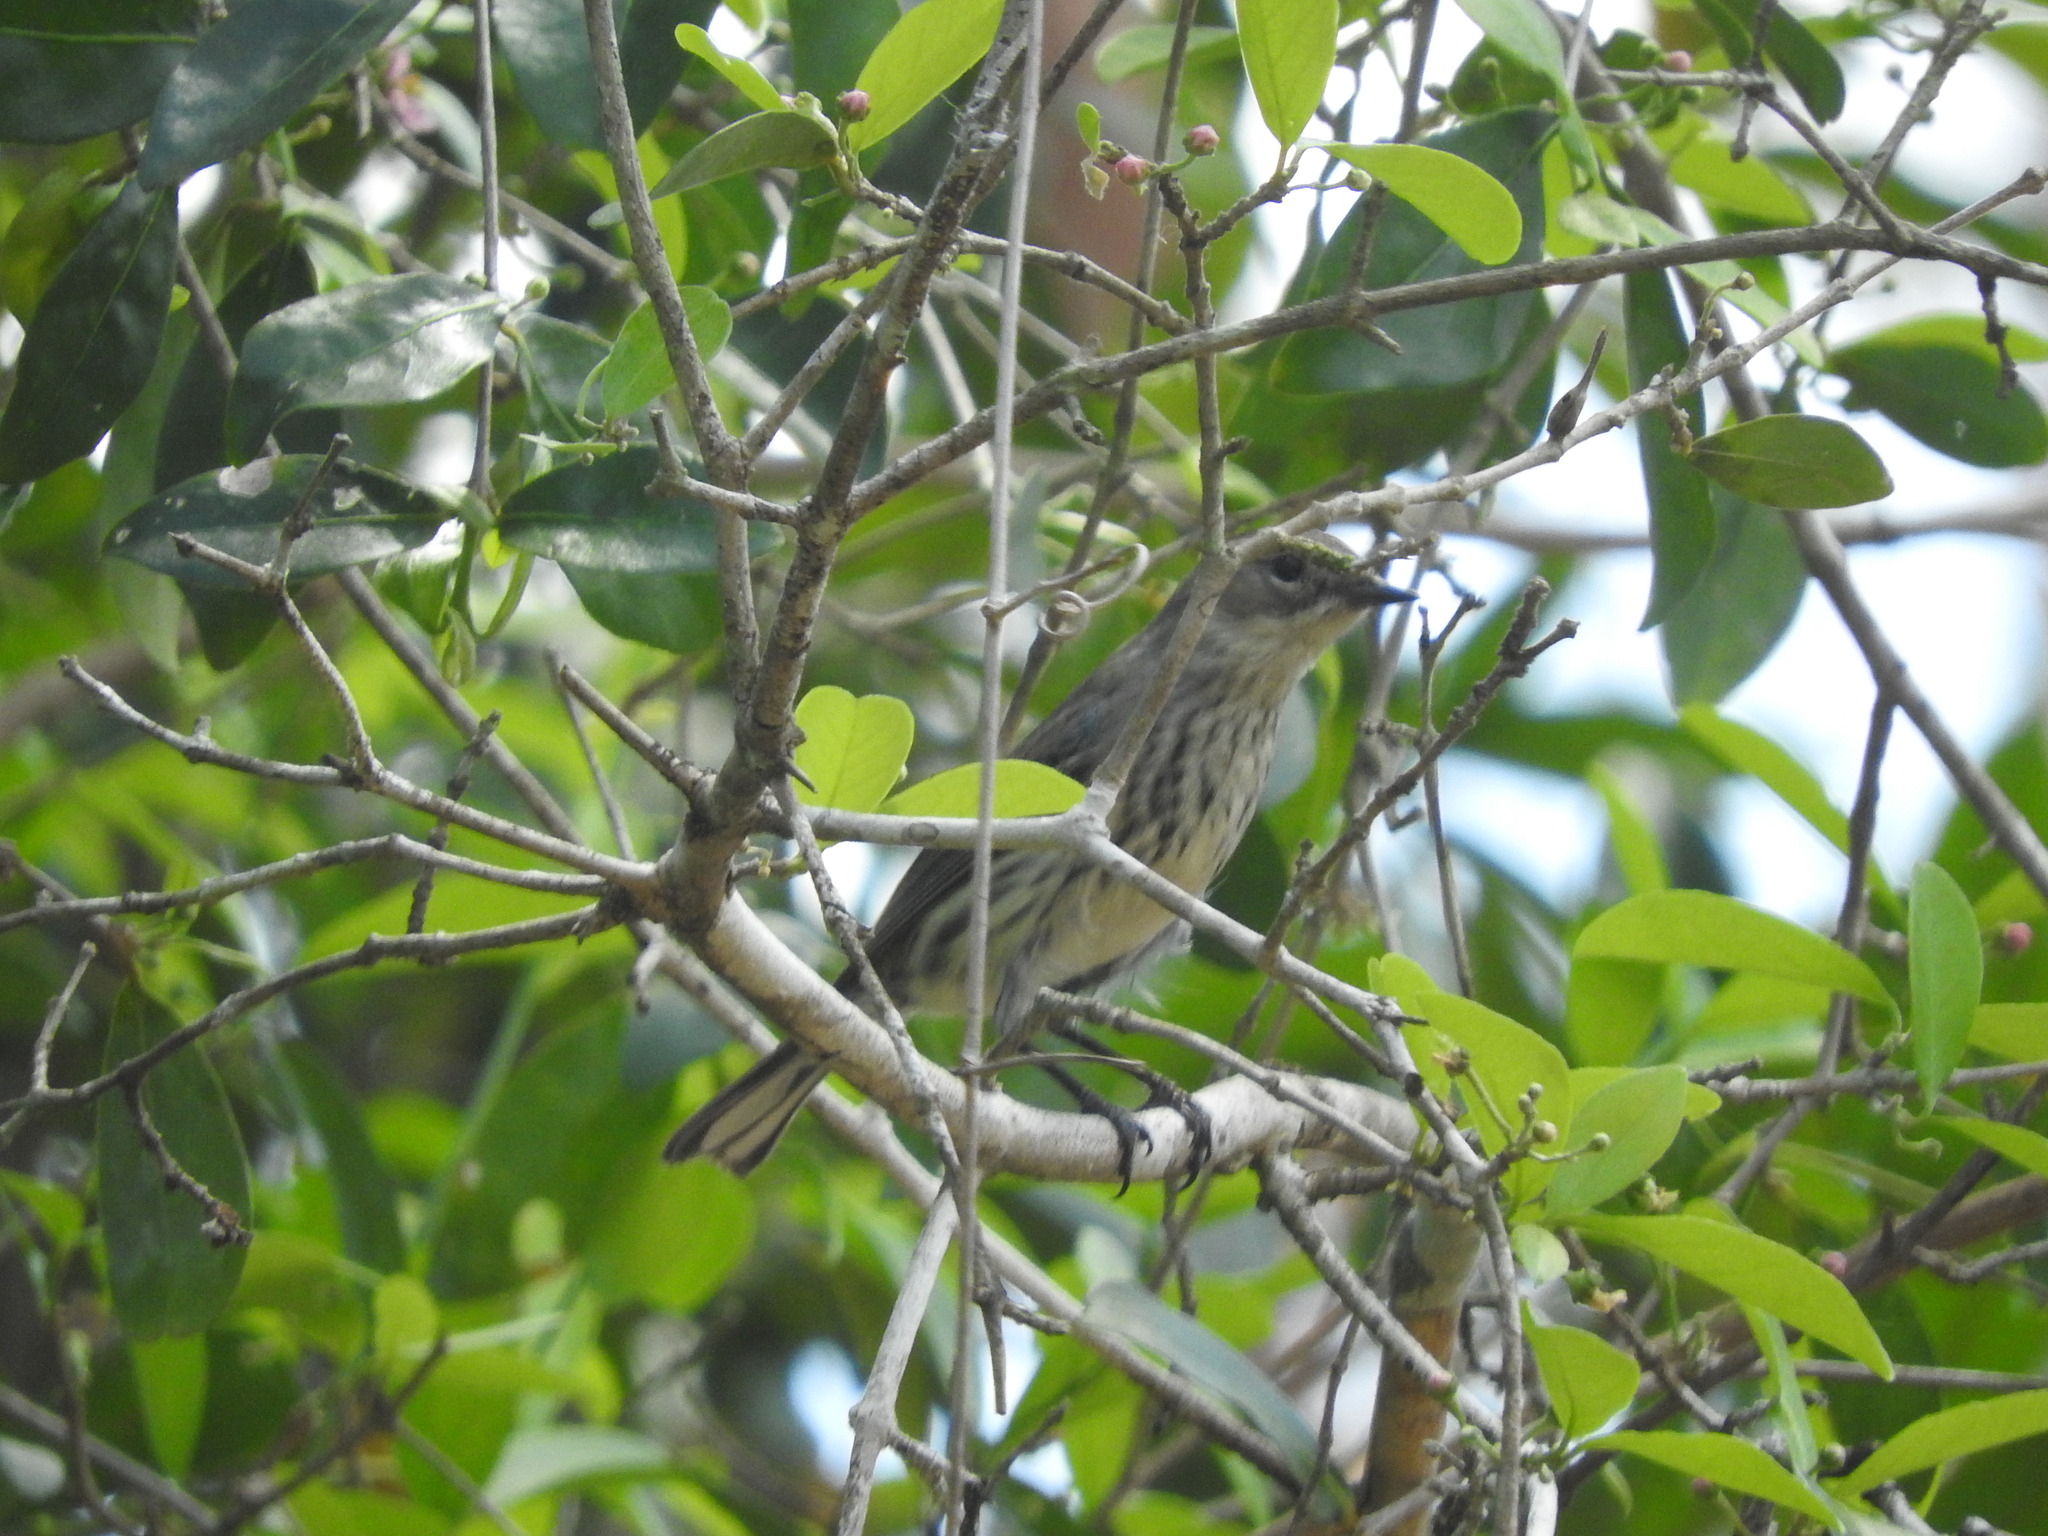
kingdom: Animalia
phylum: Chordata
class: Aves
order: Passeriformes
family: Parulidae
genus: Setophaga
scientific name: Setophaga coronata
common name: Myrtle warbler
